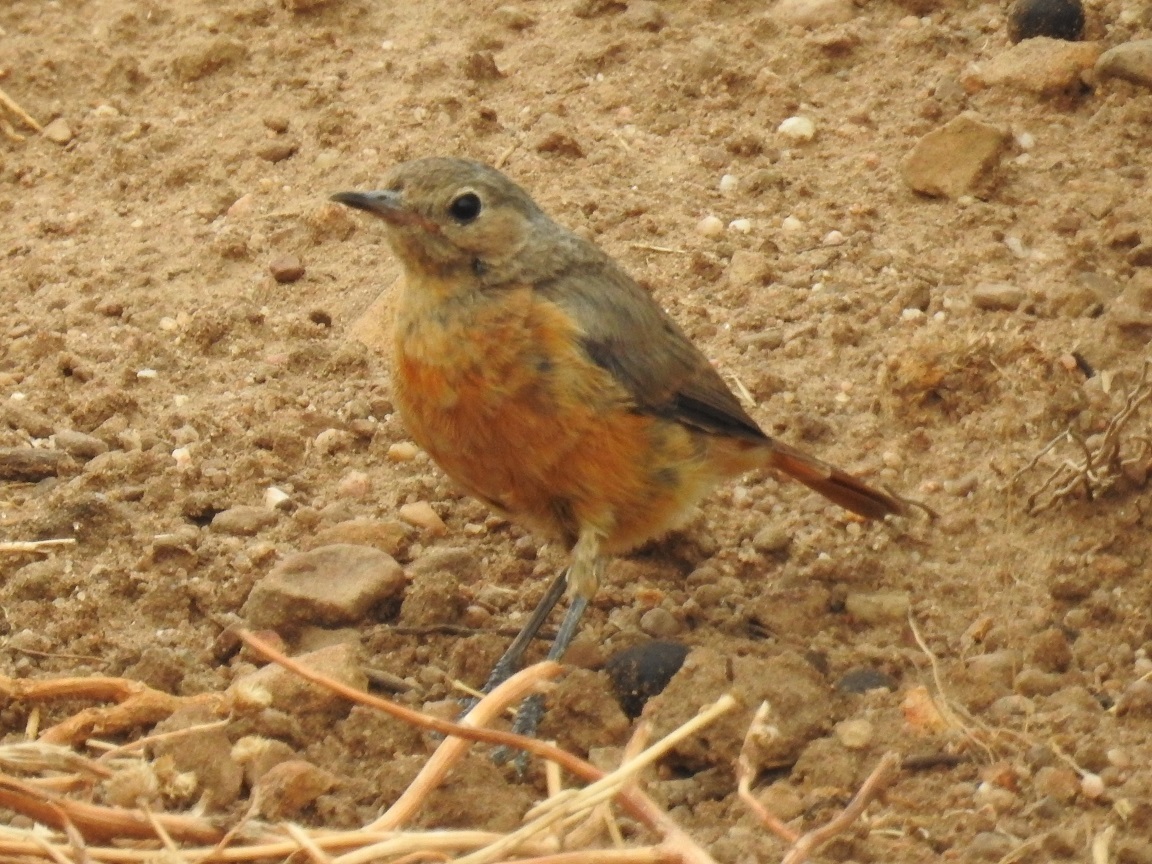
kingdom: Animalia
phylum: Chordata
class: Aves
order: Passeriformes
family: Muscicapidae
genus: Phoenicurus
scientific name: Phoenicurus moussieri
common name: Moussier's redstart
